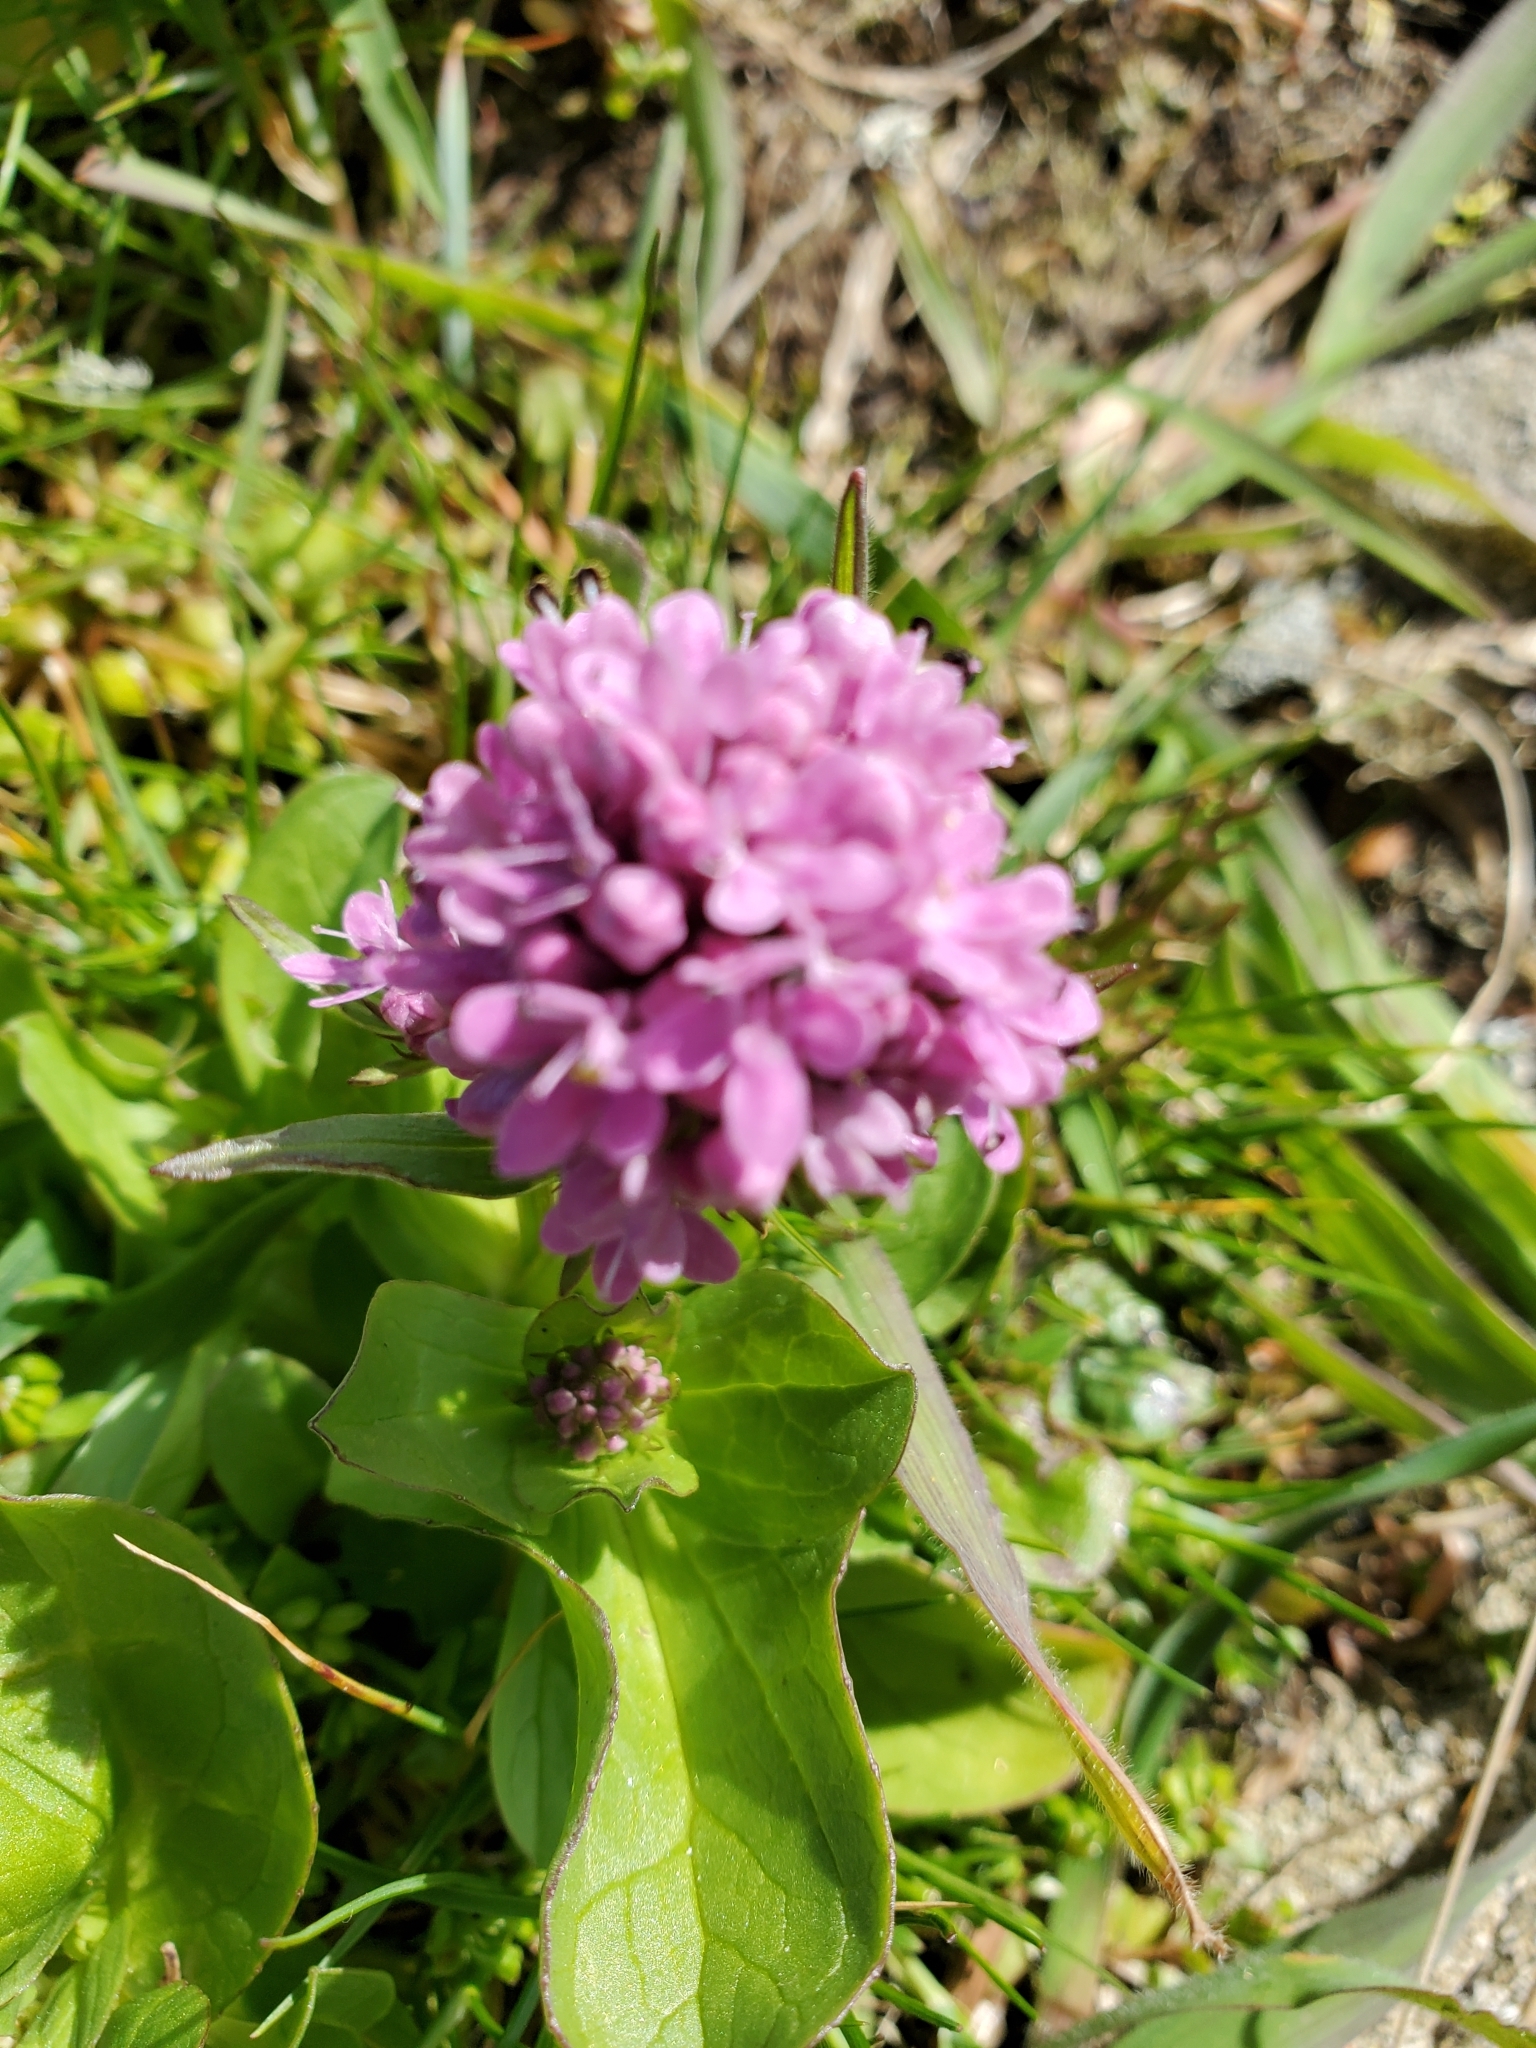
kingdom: Plantae
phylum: Tracheophyta
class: Magnoliopsida
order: Dipsacales
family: Caprifoliaceae
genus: Plectritis
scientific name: Plectritis congesta
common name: Pink plectritis
